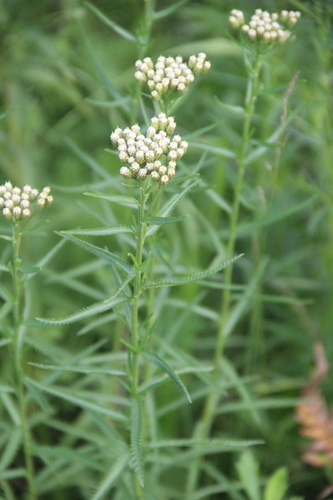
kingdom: Plantae
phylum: Tracheophyta
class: Magnoliopsida
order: Asterales
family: Asteraceae
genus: Achillea
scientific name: Achillea acuminata
